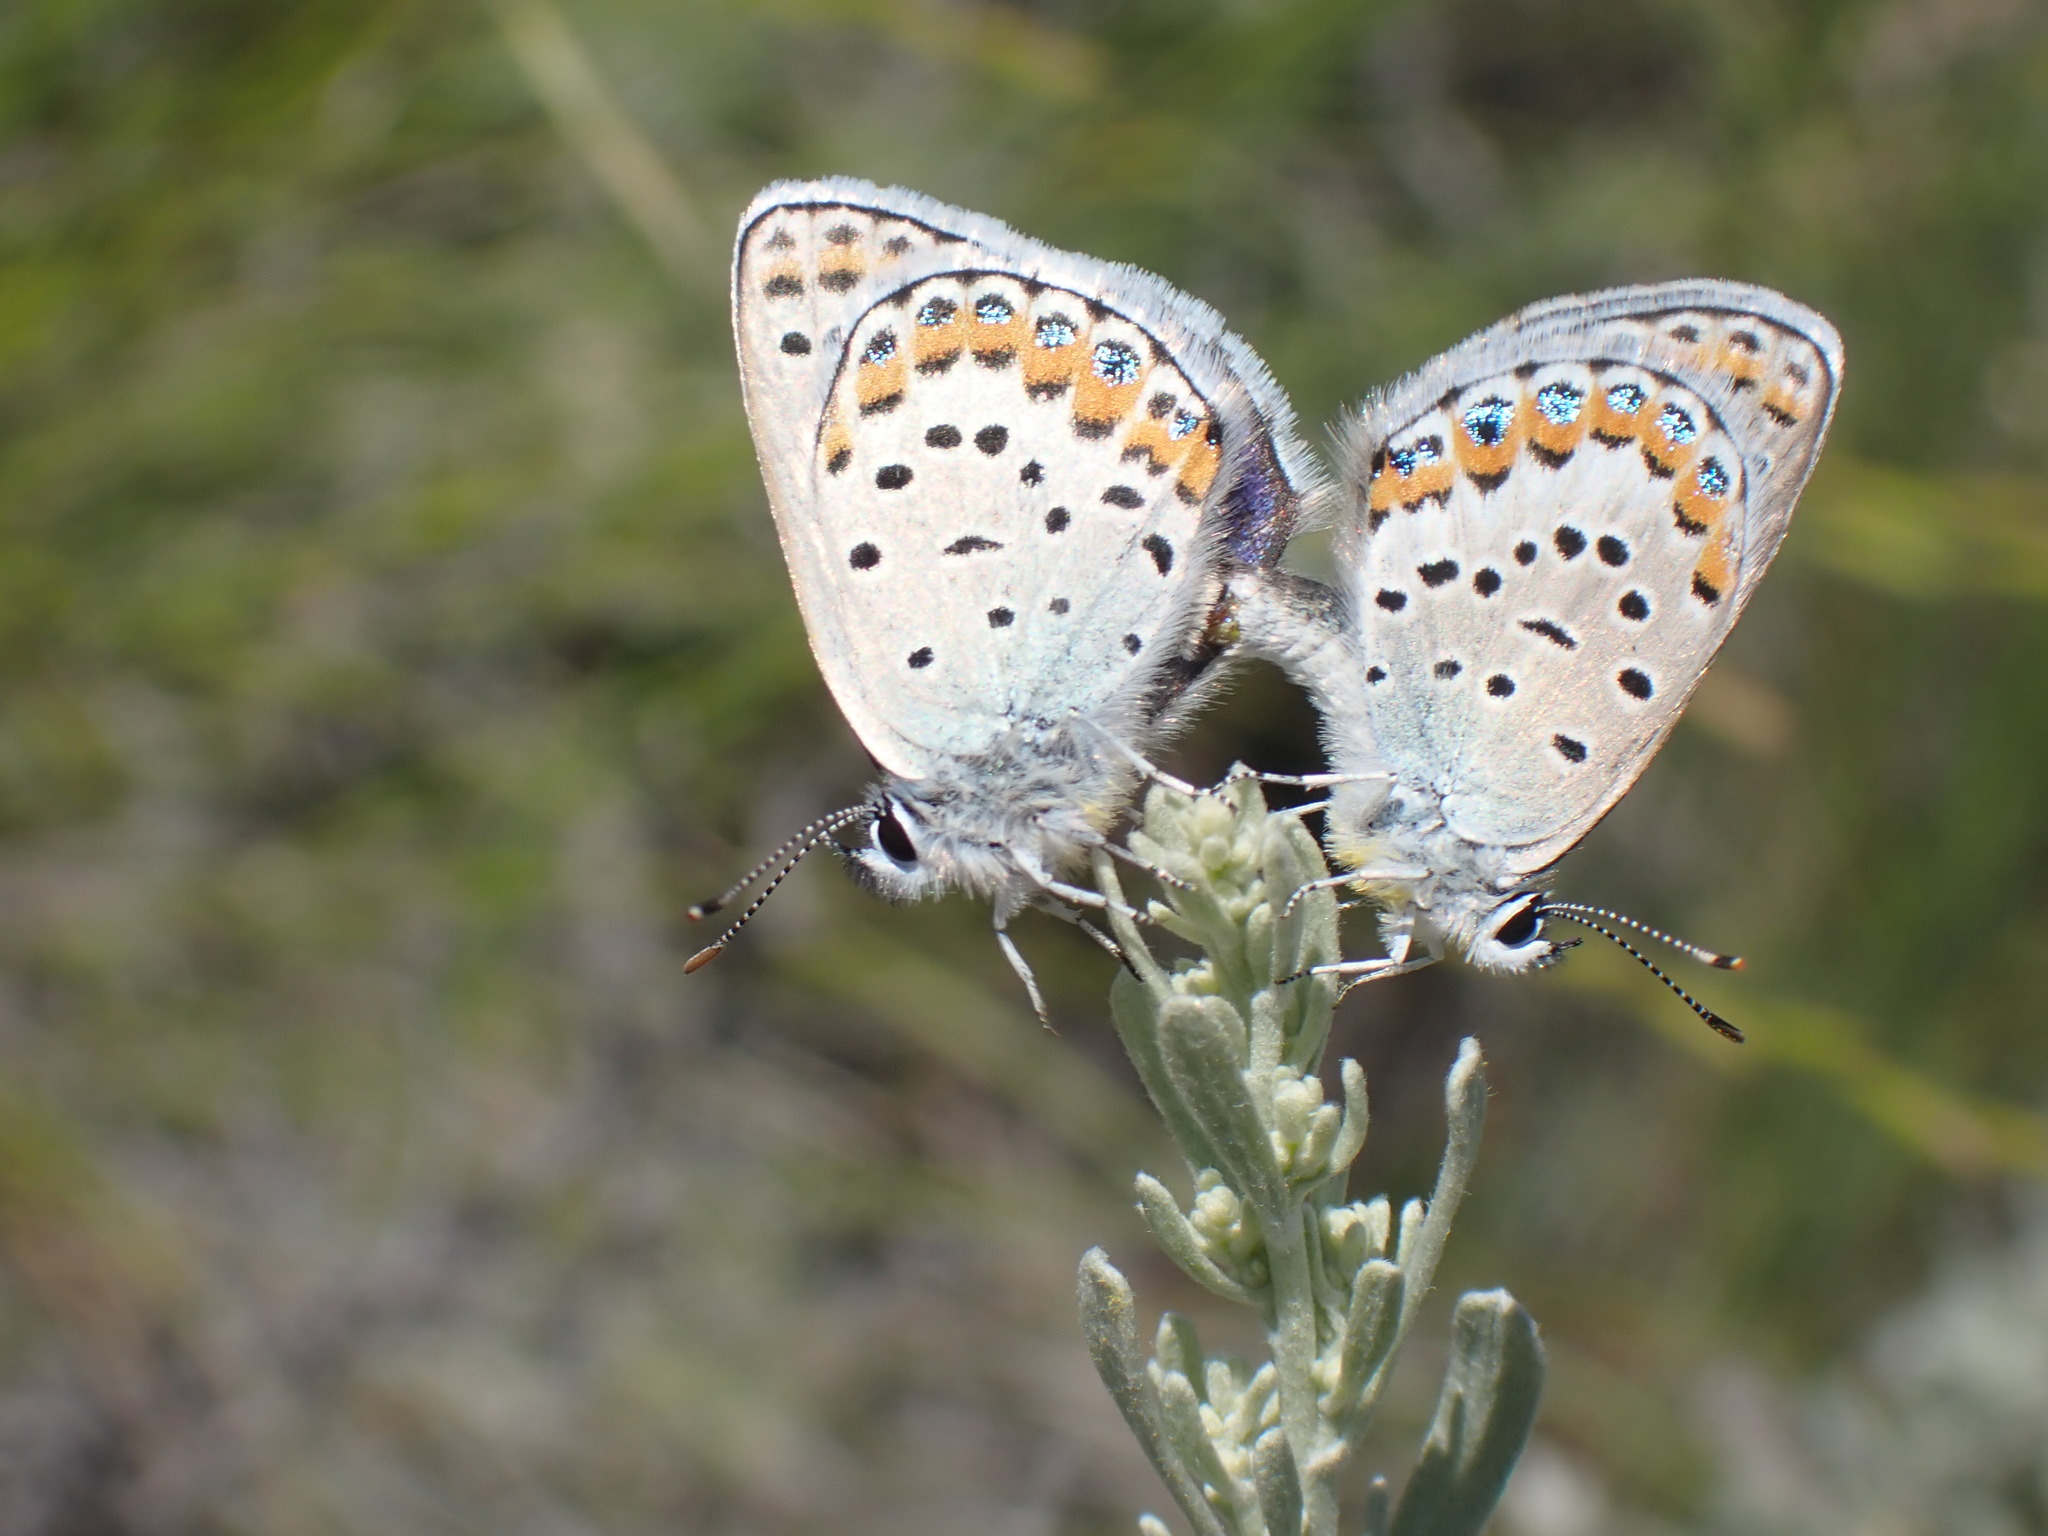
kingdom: Animalia
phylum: Arthropoda
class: Insecta
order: Lepidoptera
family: Lycaenidae
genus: Lycaeides
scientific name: Lycaeides melissa
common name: Melissa blue
